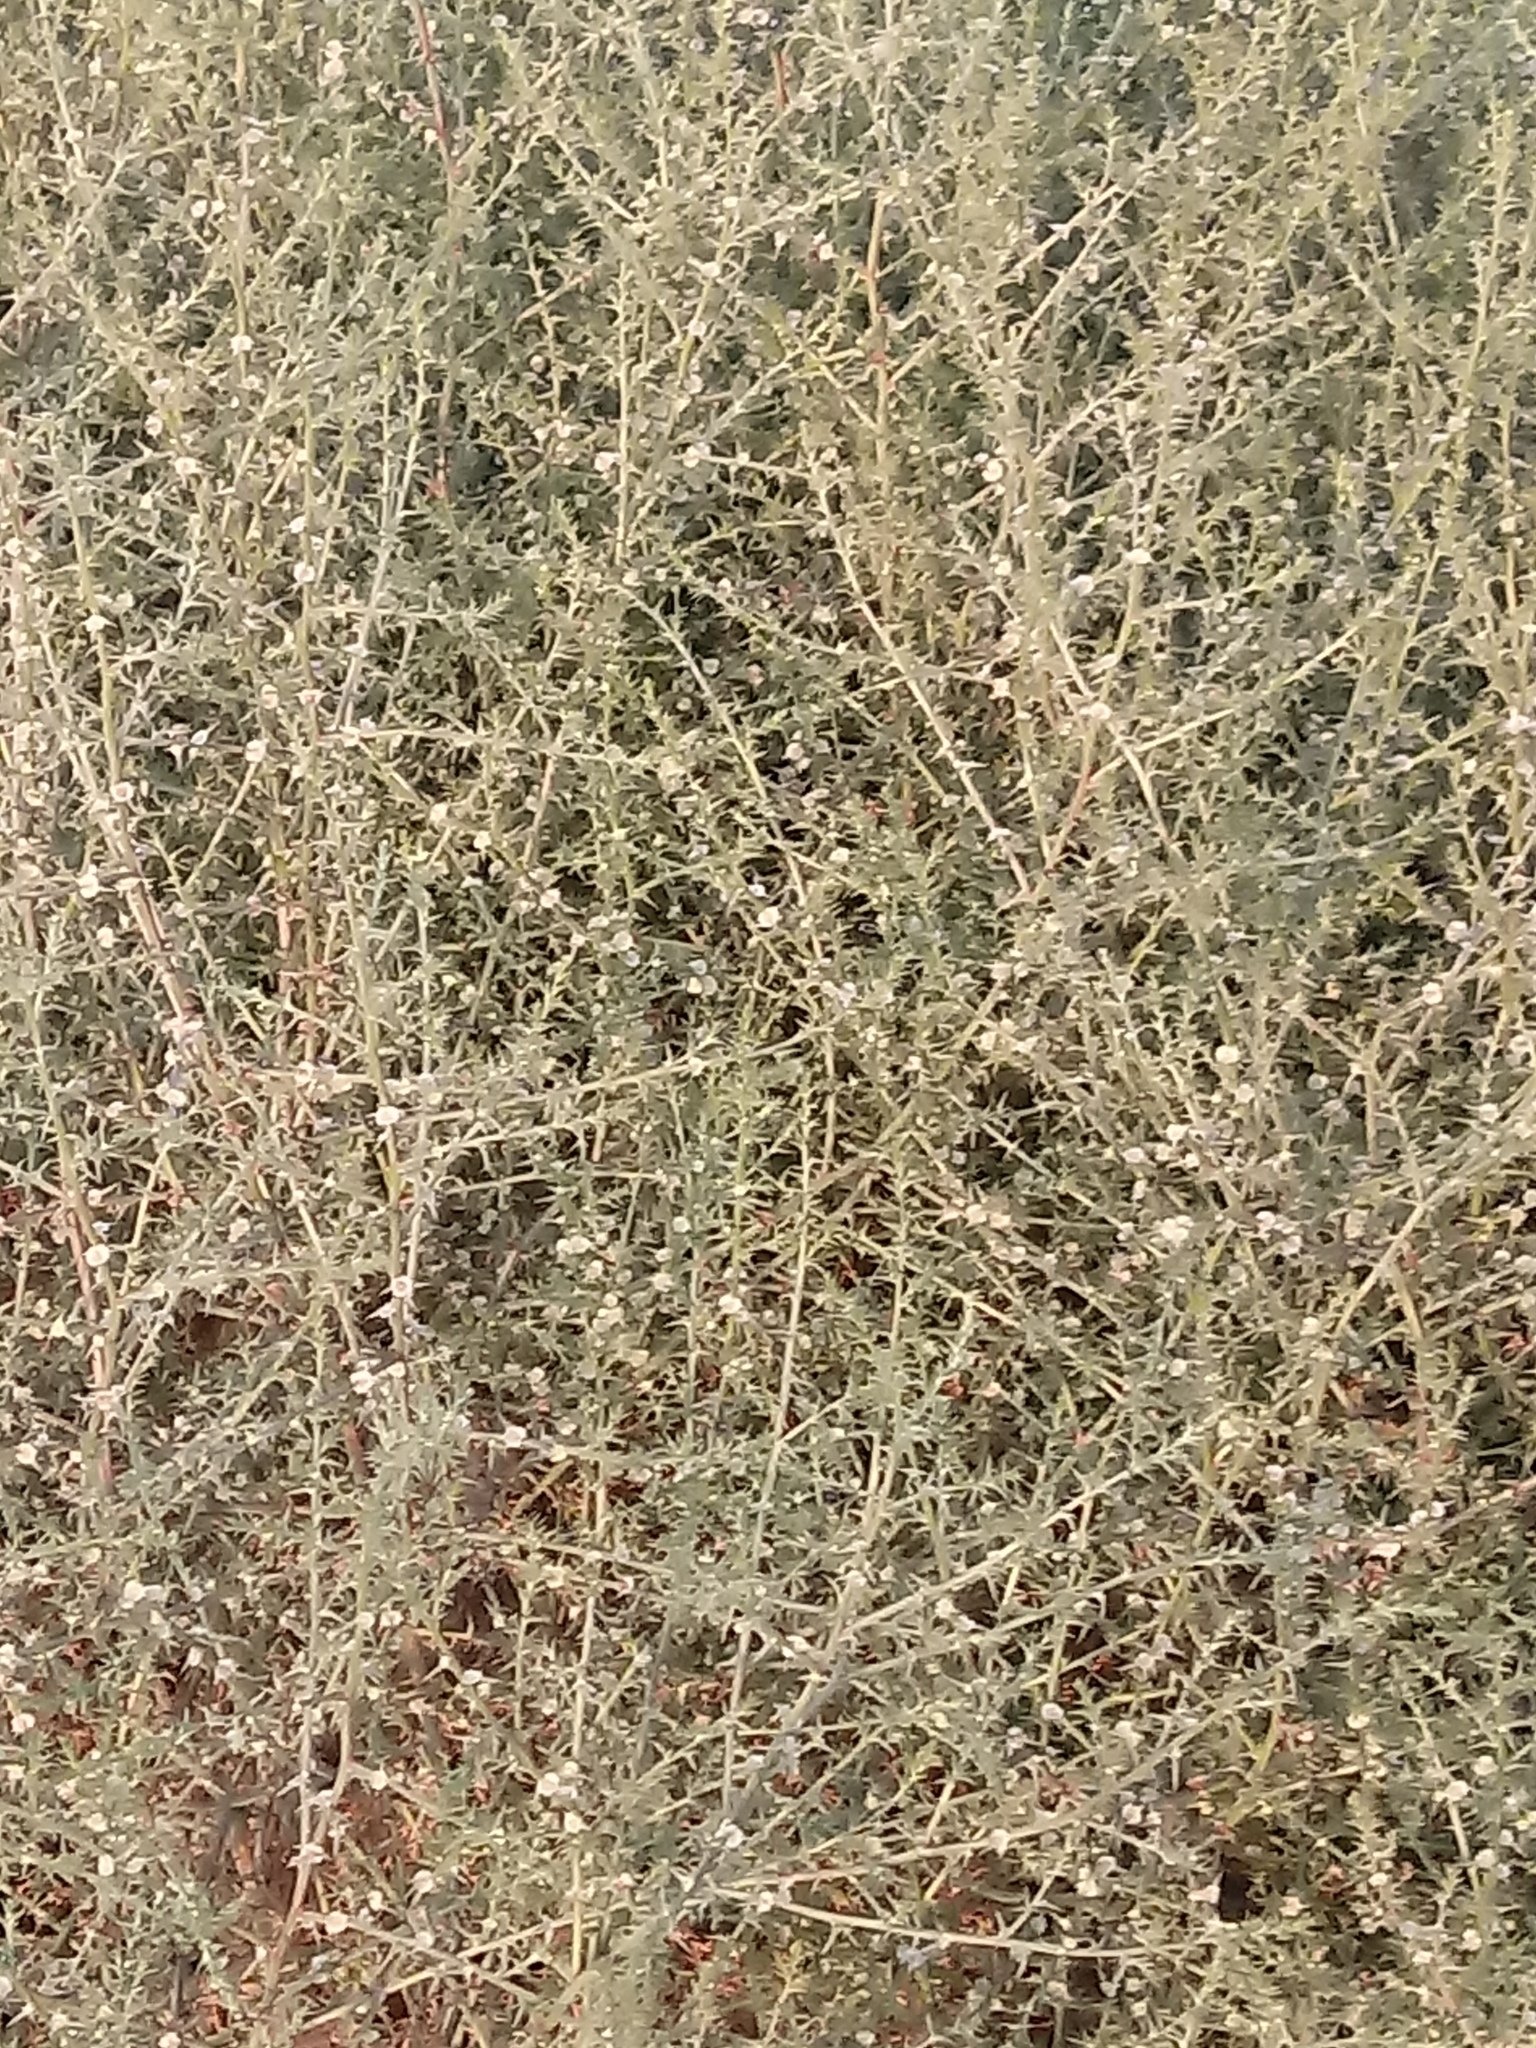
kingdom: Plantae
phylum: Tracheophyta
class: Magnoliopsida
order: Caryophyllales
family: Amaranthaceae
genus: Salsola
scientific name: Salsola tragus
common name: Prickly russian thistle
